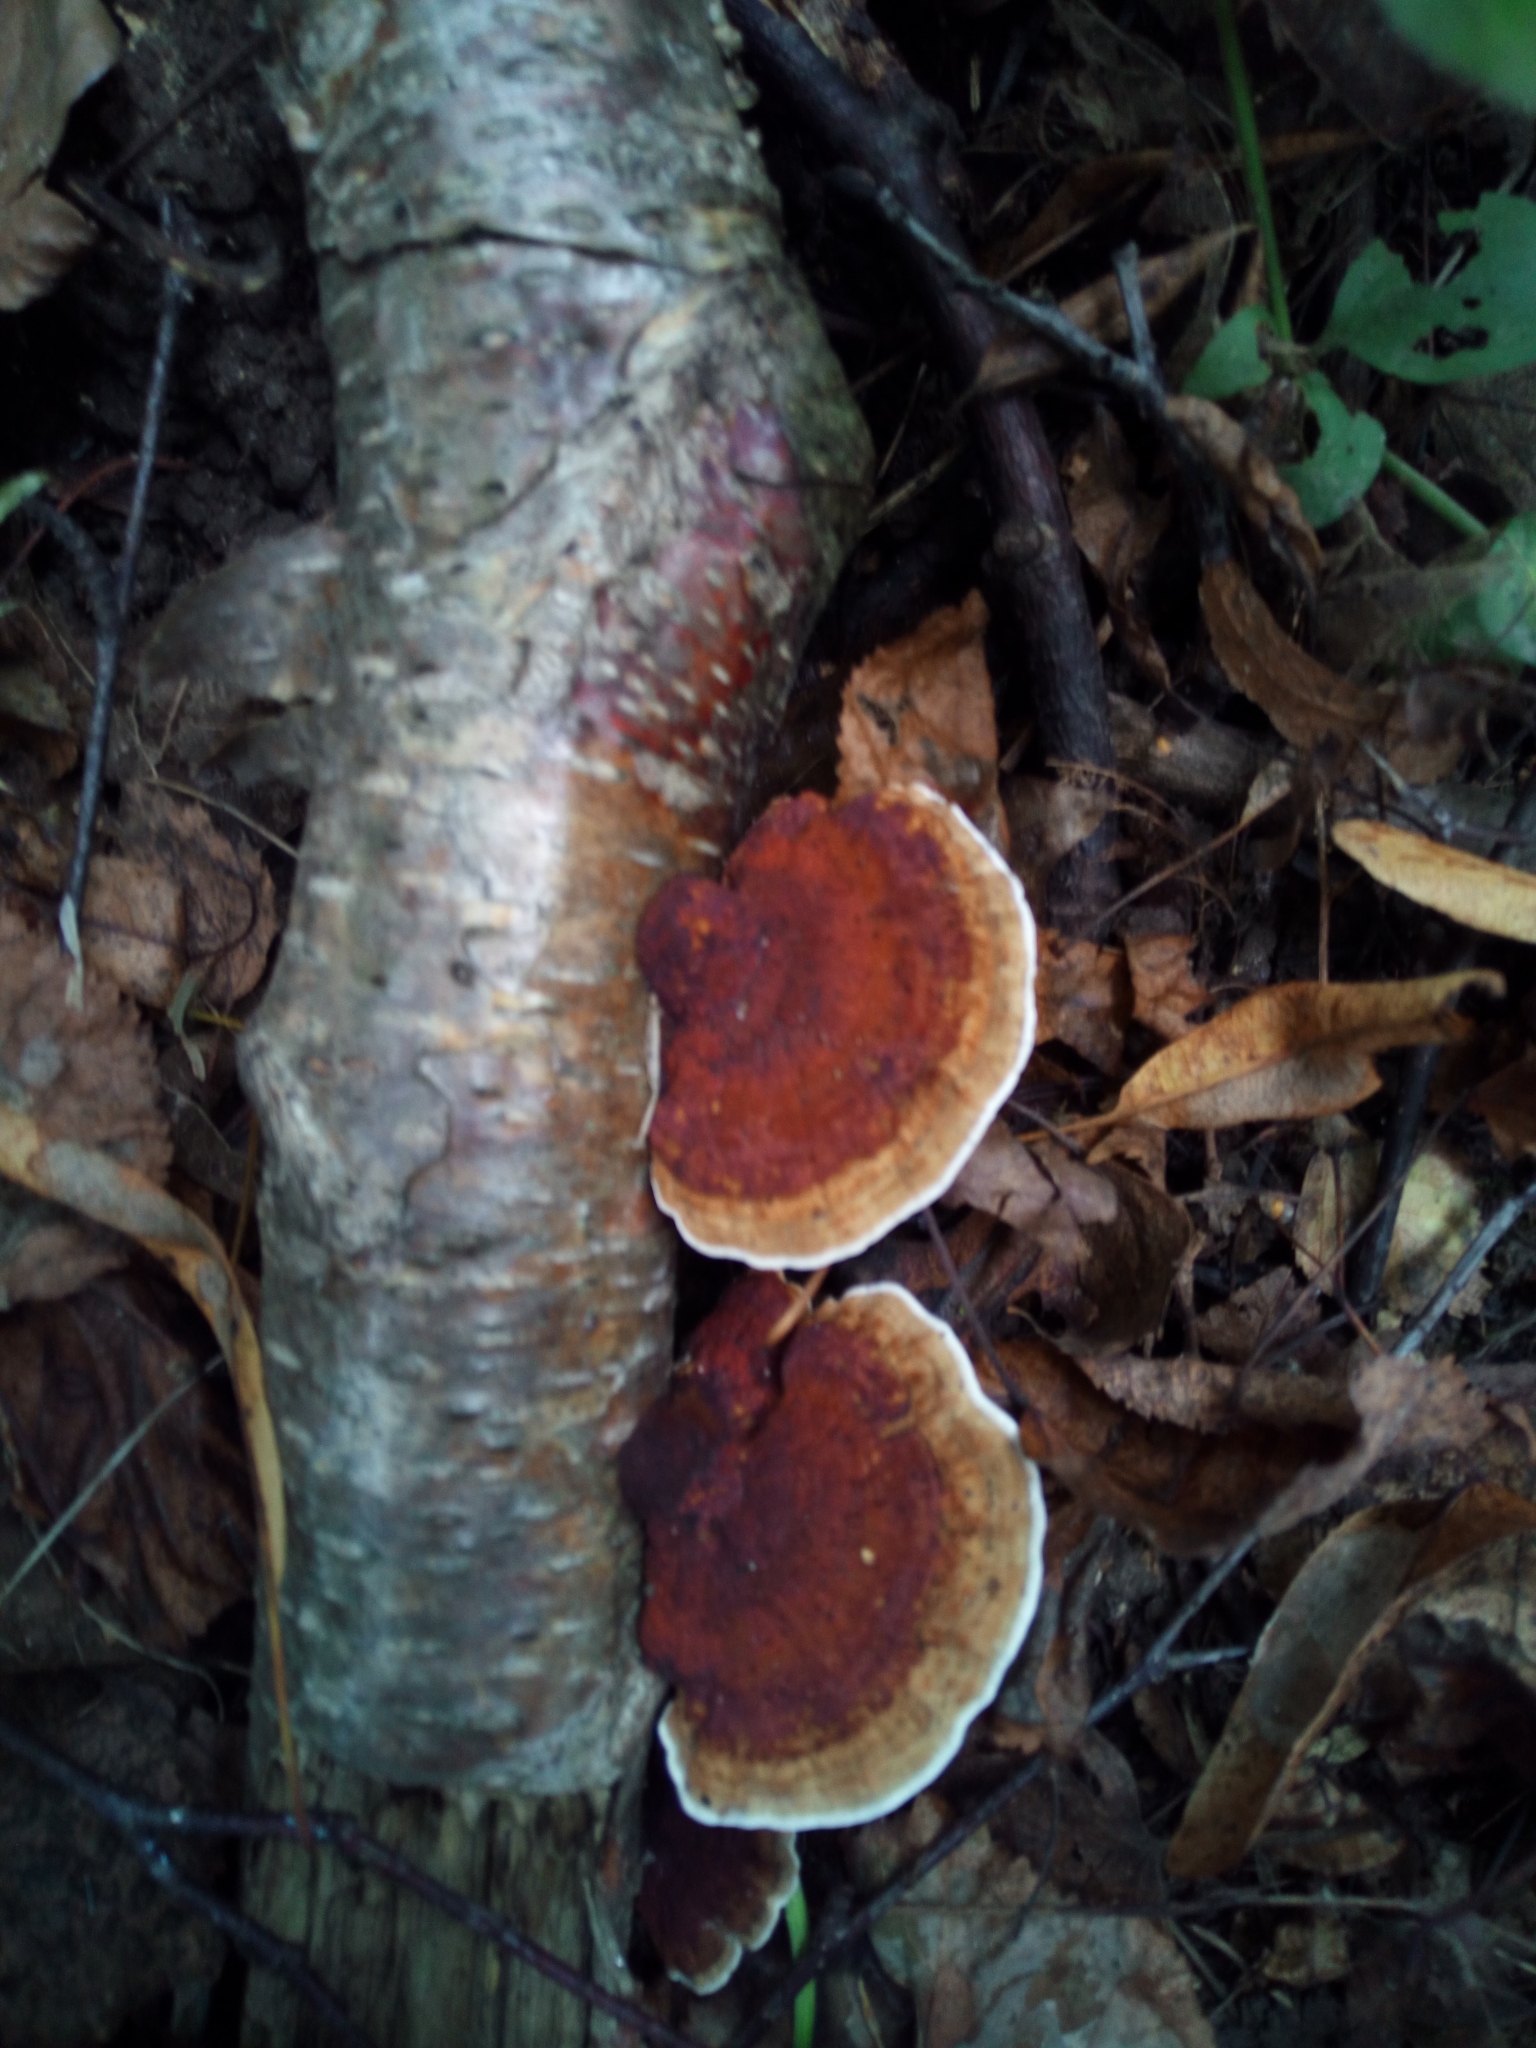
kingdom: Fungi
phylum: Basidiomycota
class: Agaricomycetes
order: Polyporales
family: Fomitopsidaceae
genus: Fomitopsis
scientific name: Fomitopsis pinicola
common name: Red-belted bracket
